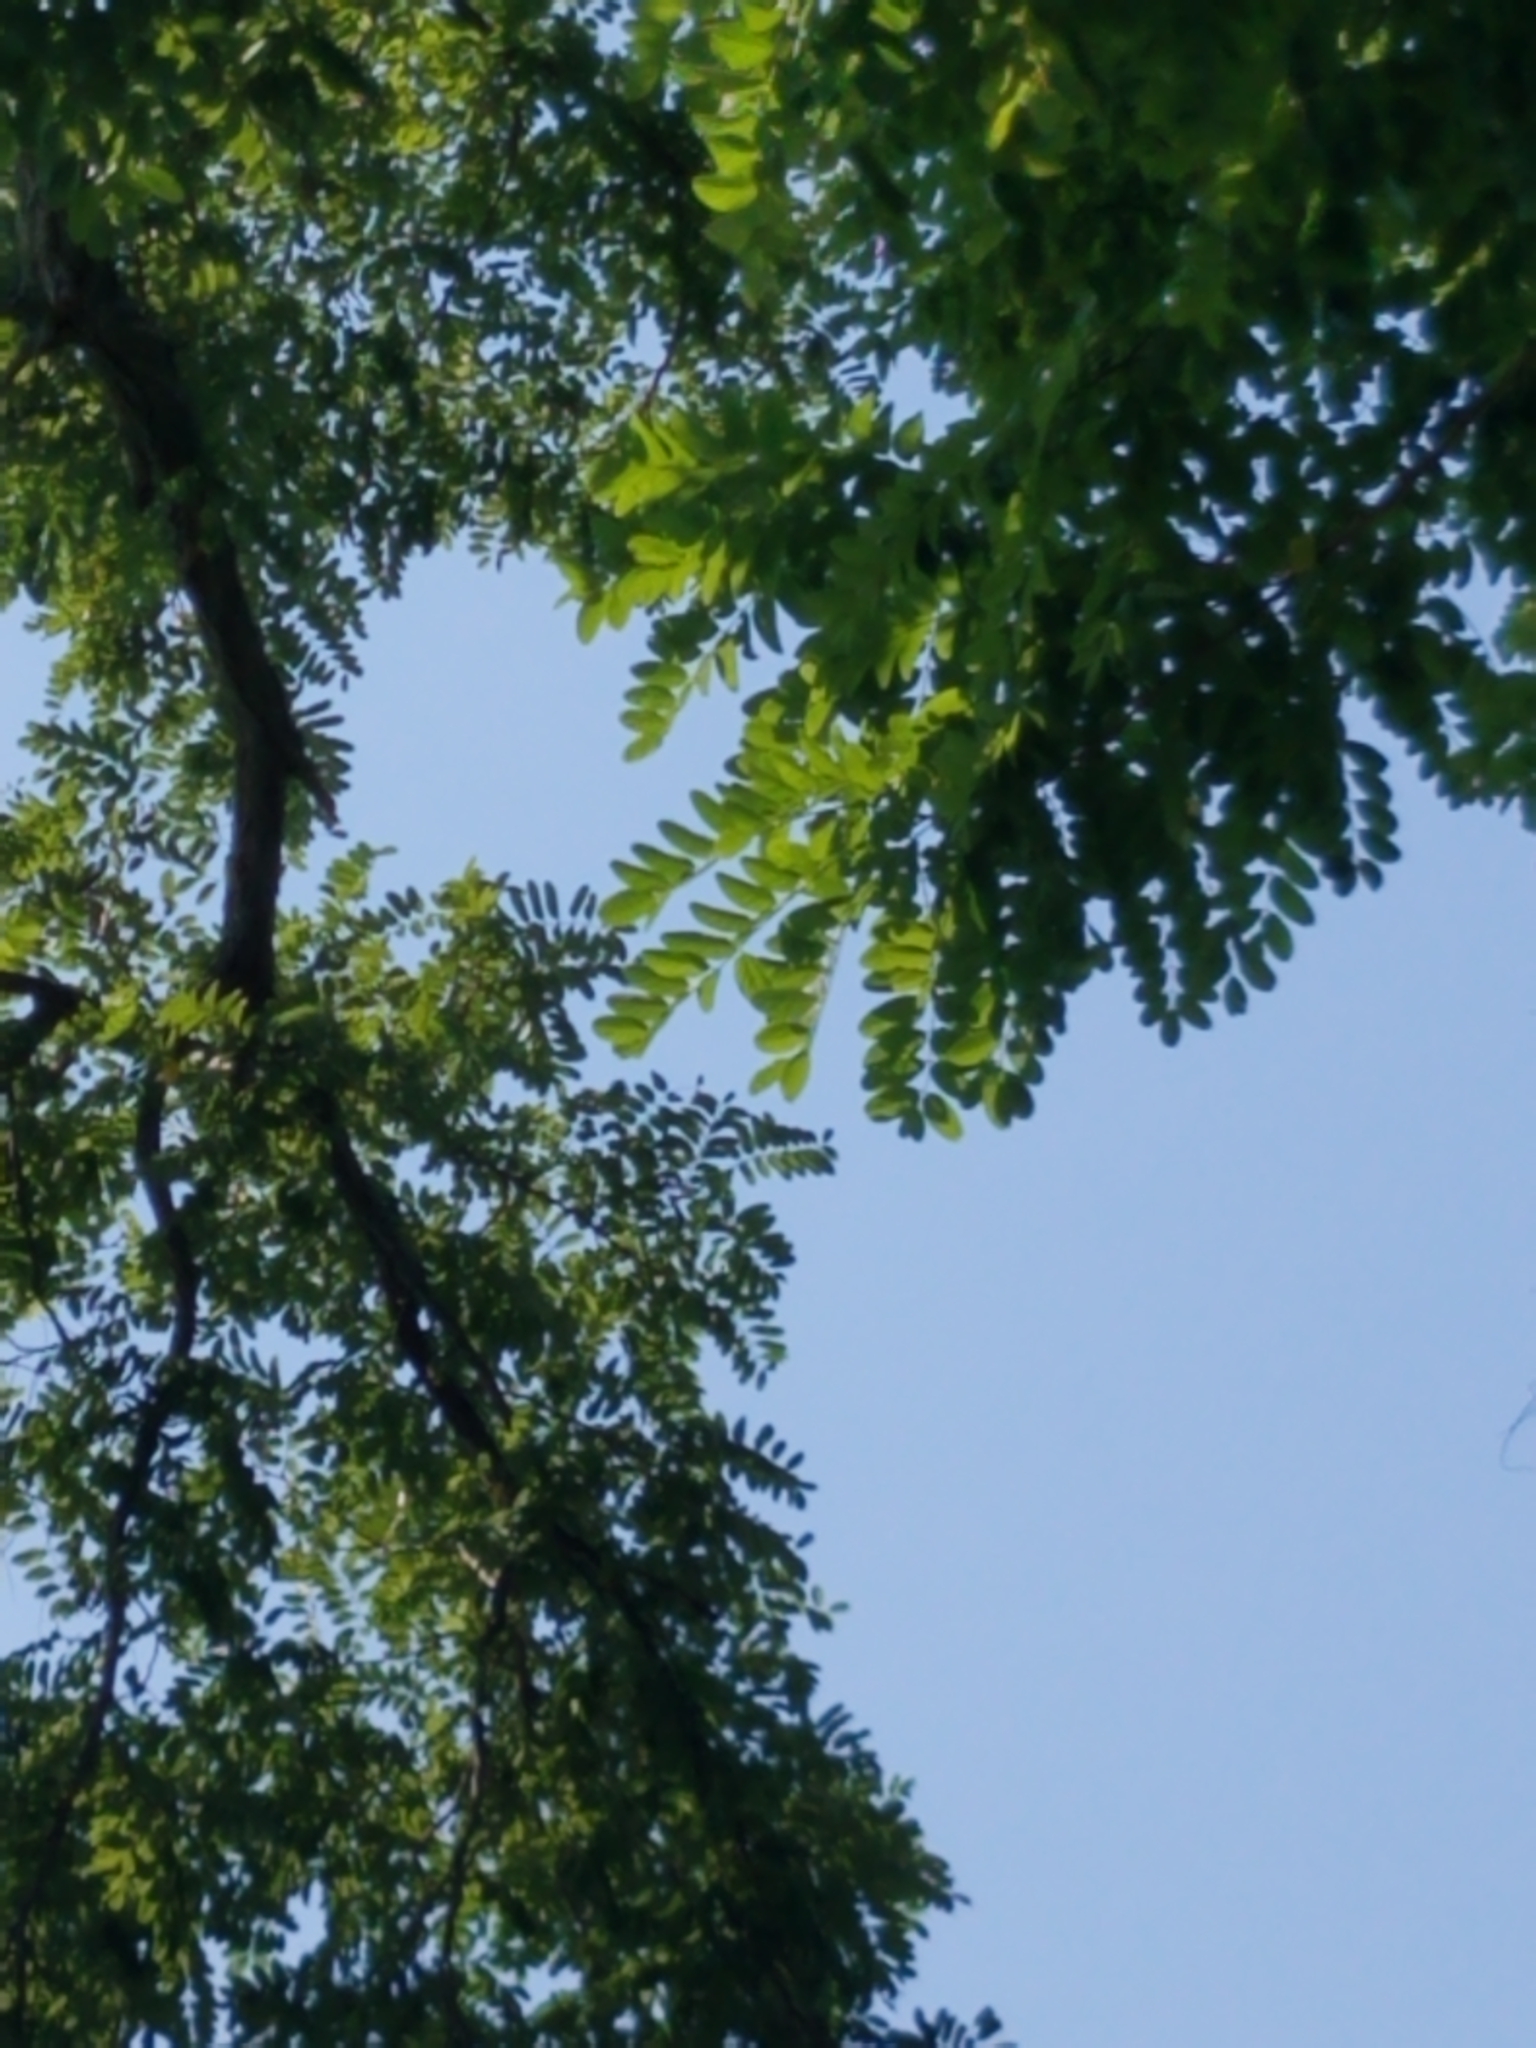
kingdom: Plantae
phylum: Tracheophyta
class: Magnoliopsida
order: Fabales
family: Fabaceae
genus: Robinia
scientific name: Robinia pseudoacacia
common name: Black locust
